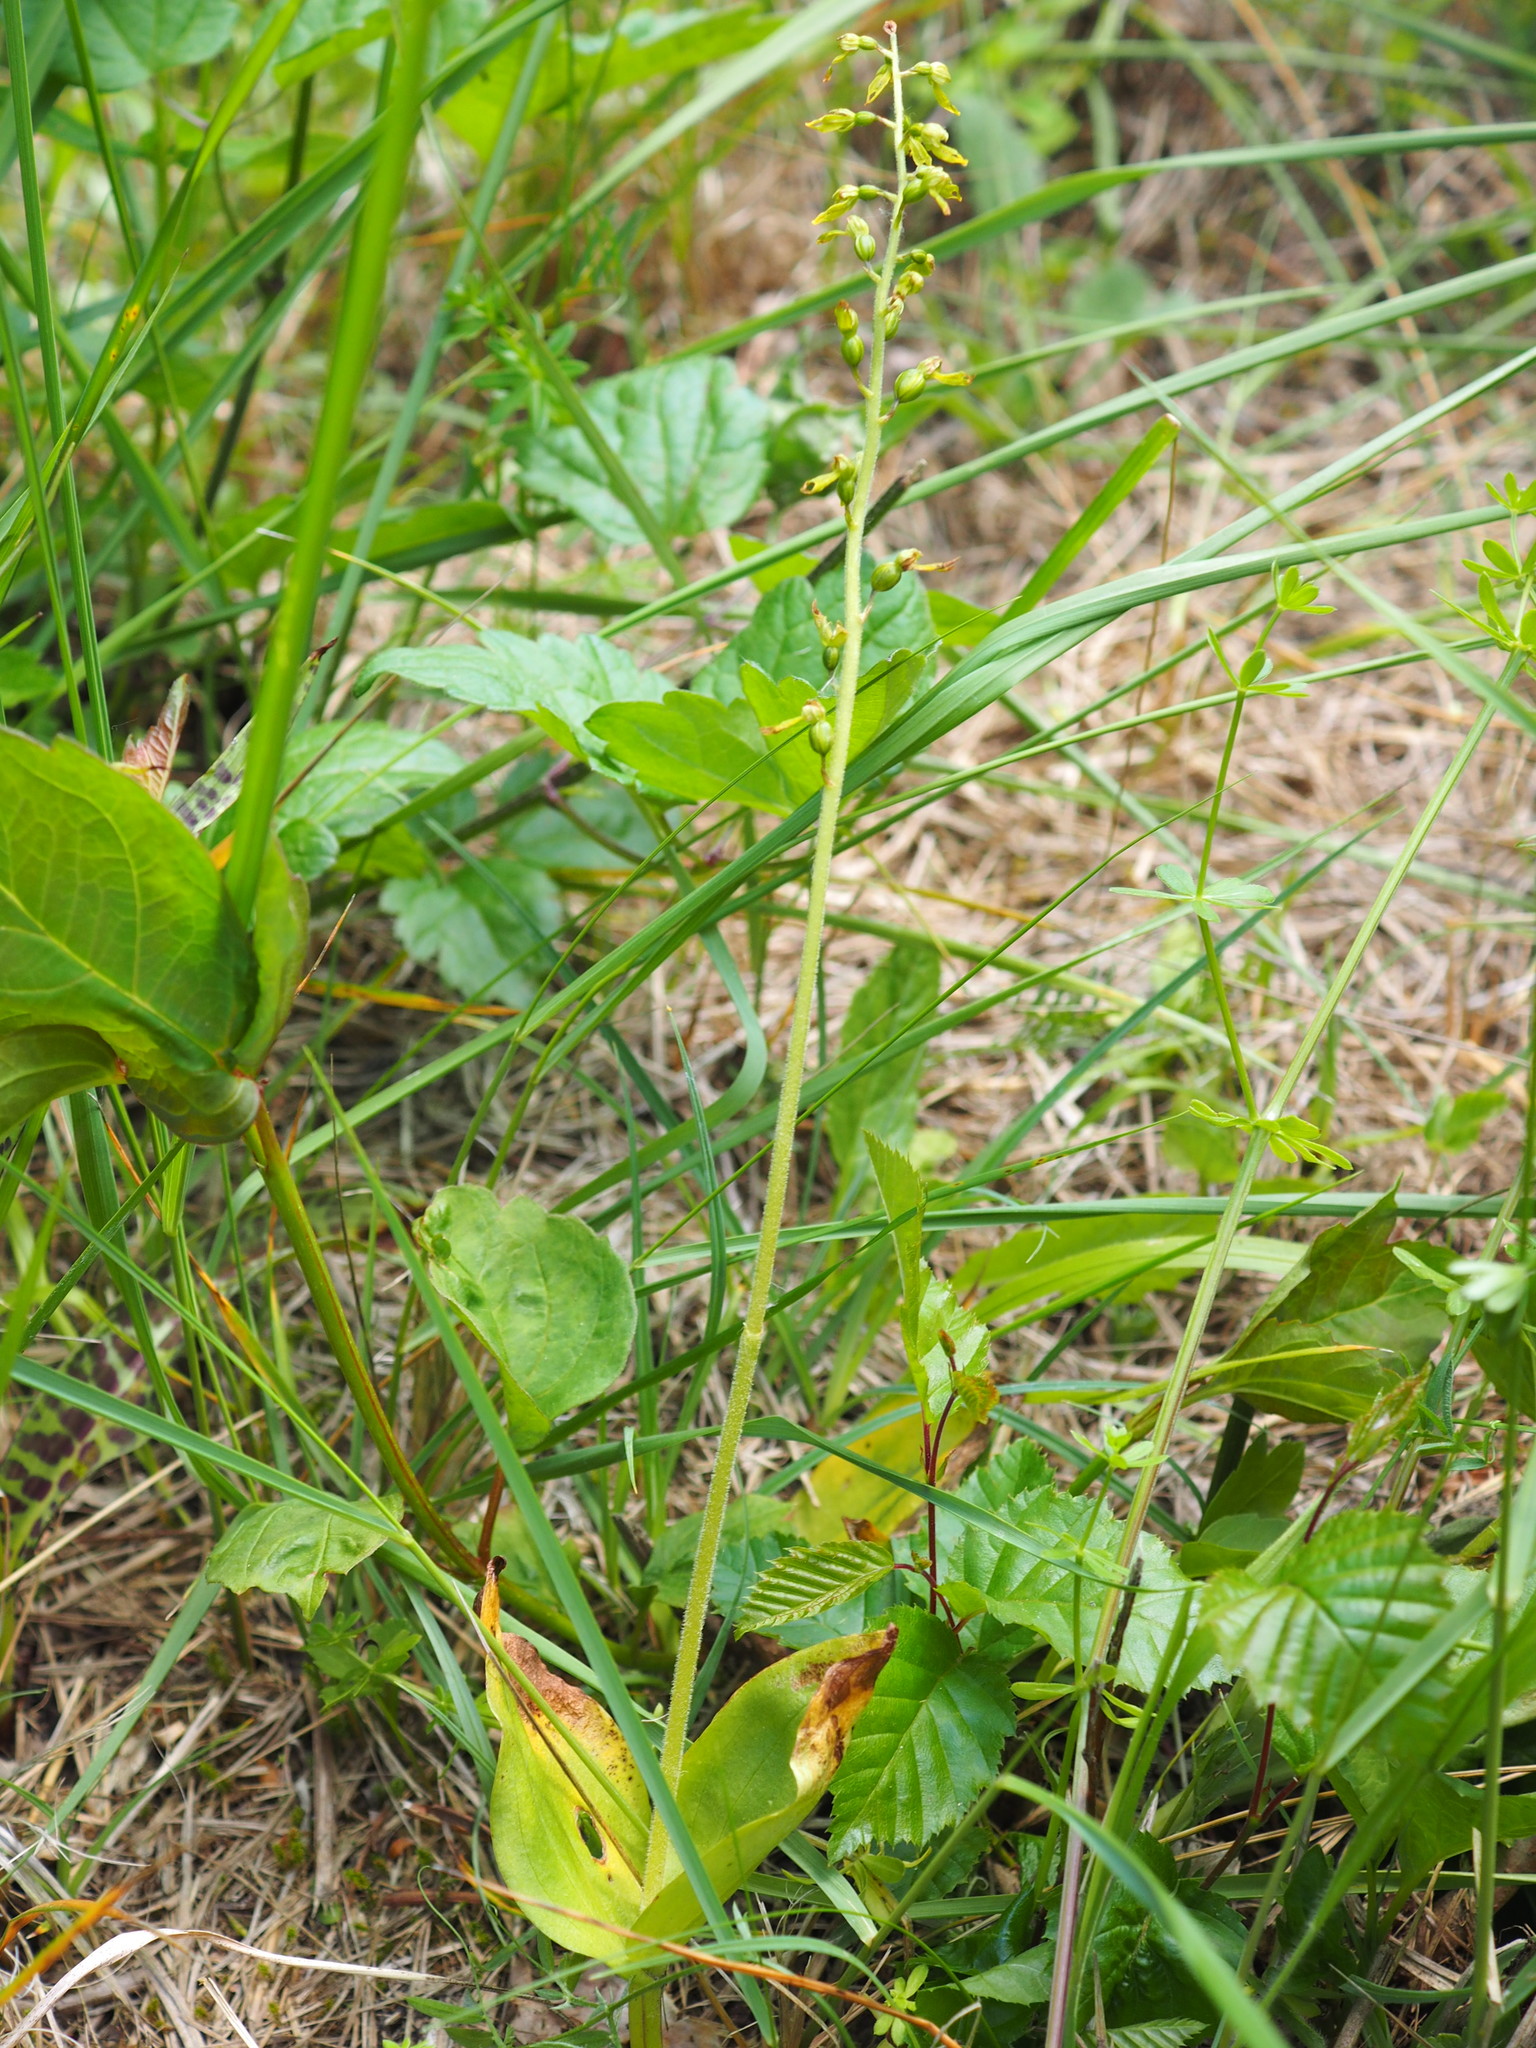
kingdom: Plantae
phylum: Tracheophyta
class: Liliopsida
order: Asparagales
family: Orchidaceae
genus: Neottia
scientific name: Neottia ovata
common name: Common twayblade
